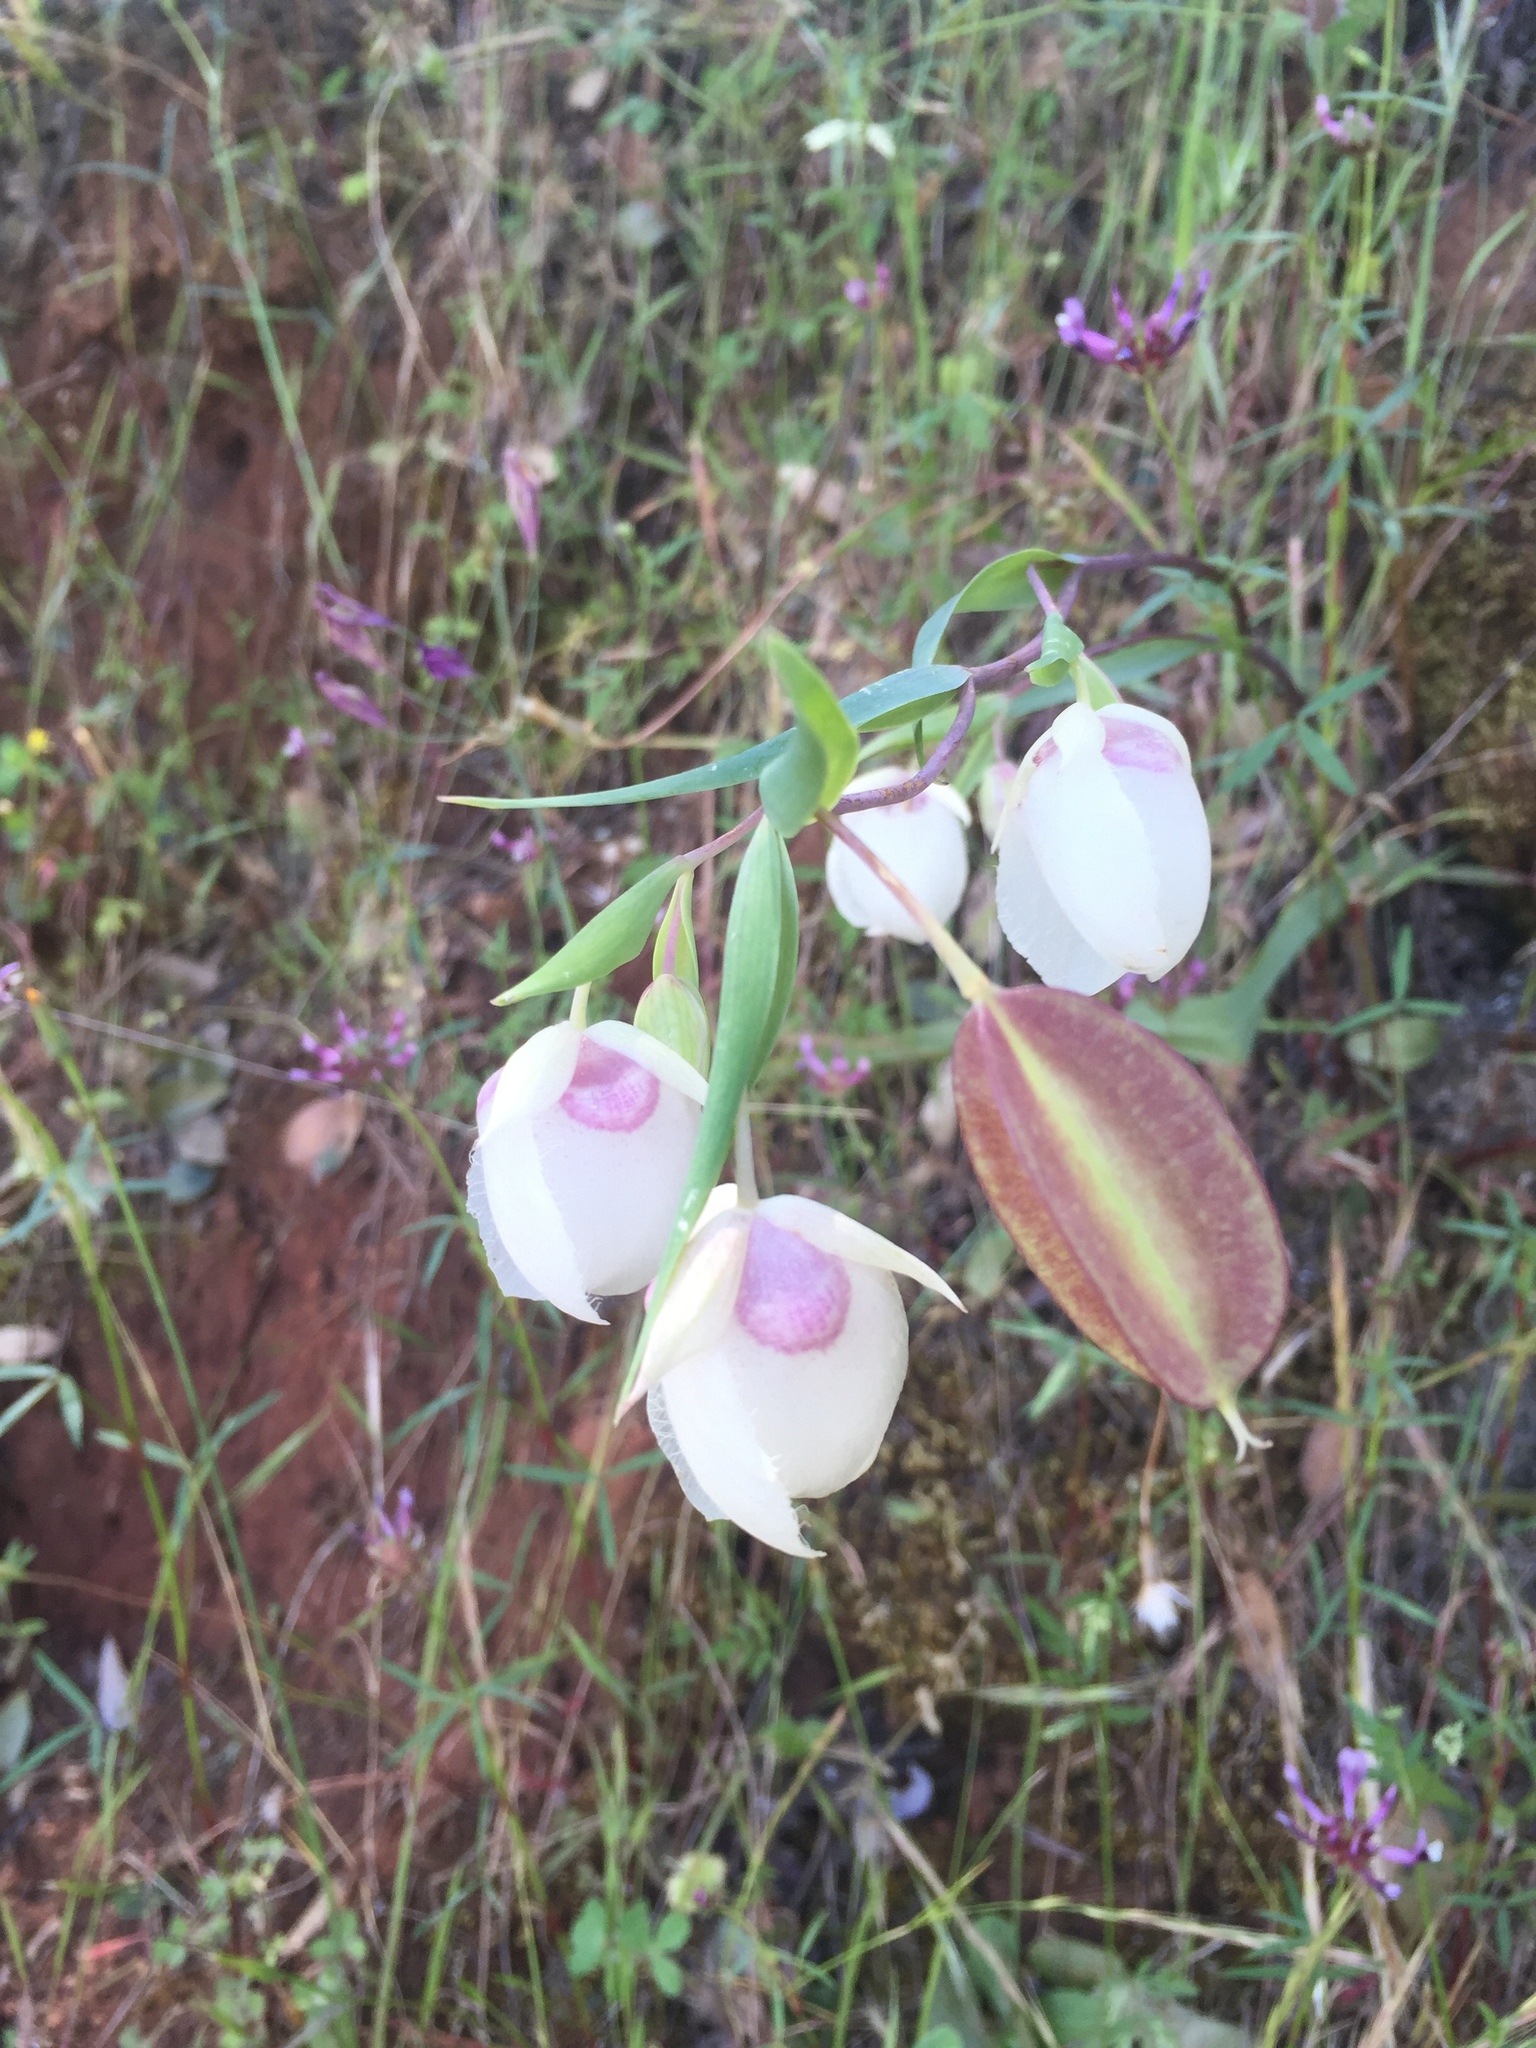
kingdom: Plantae
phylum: Tracheophyta
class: Liliopsida
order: Liliales
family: Liliaceae
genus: Calochortus
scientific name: Calochortus albus
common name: Fairy-lantern
